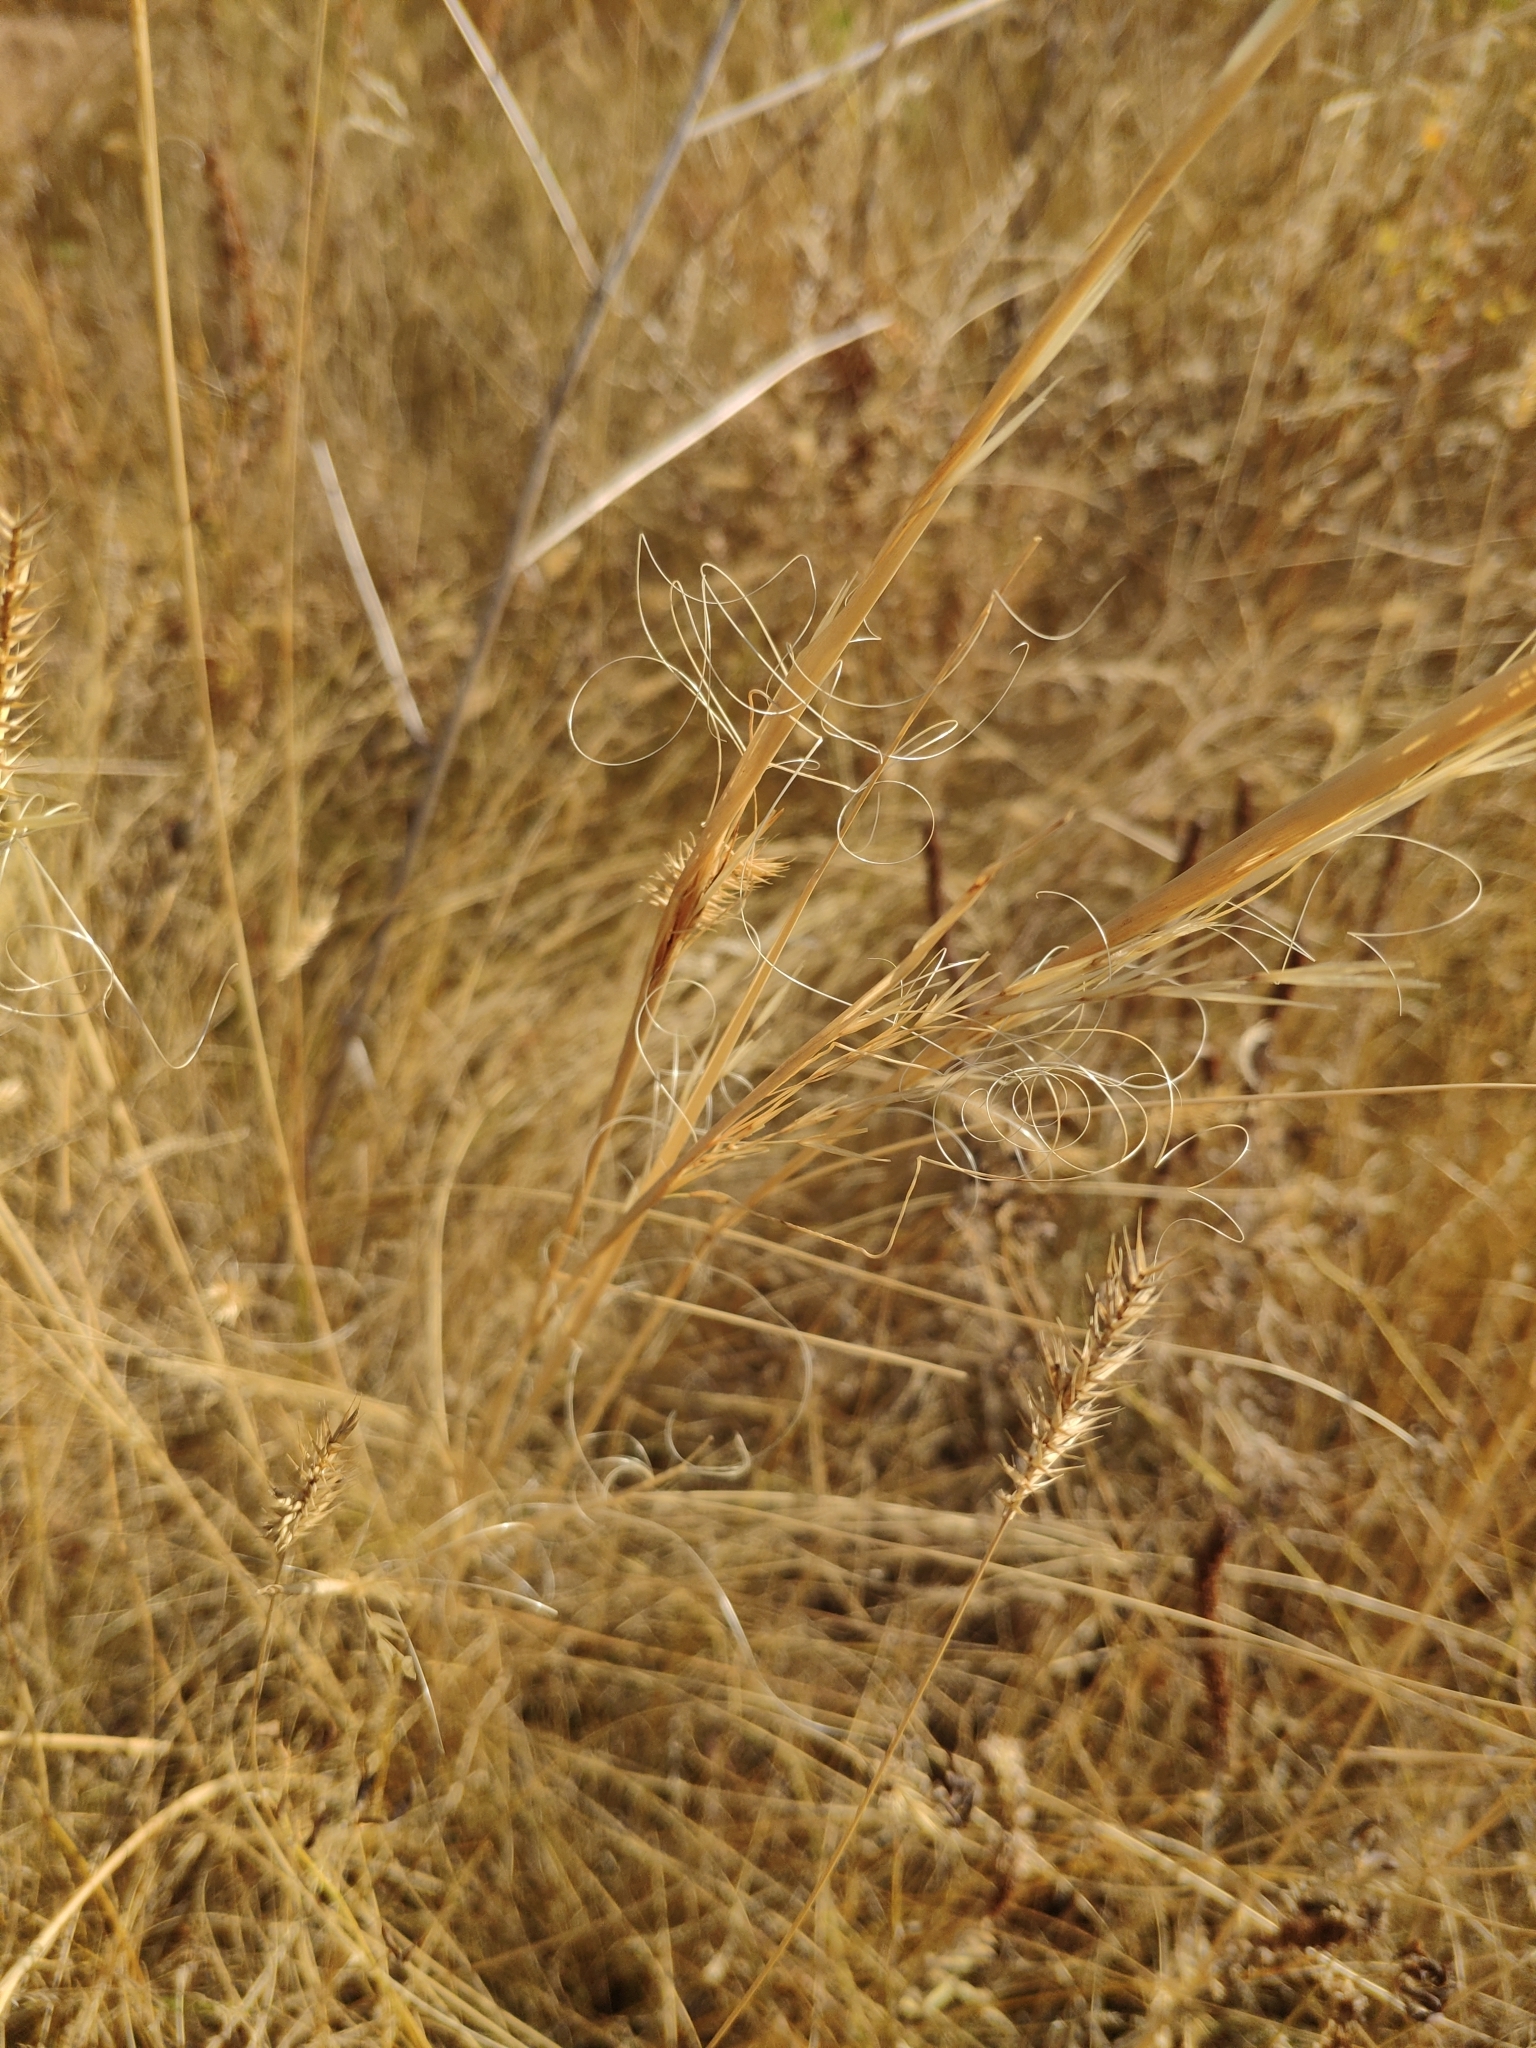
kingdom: Plantae
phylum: Tracheophyta
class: Liliopsida
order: Poales
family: Poaceae
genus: Stipa
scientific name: Stipa capillata
